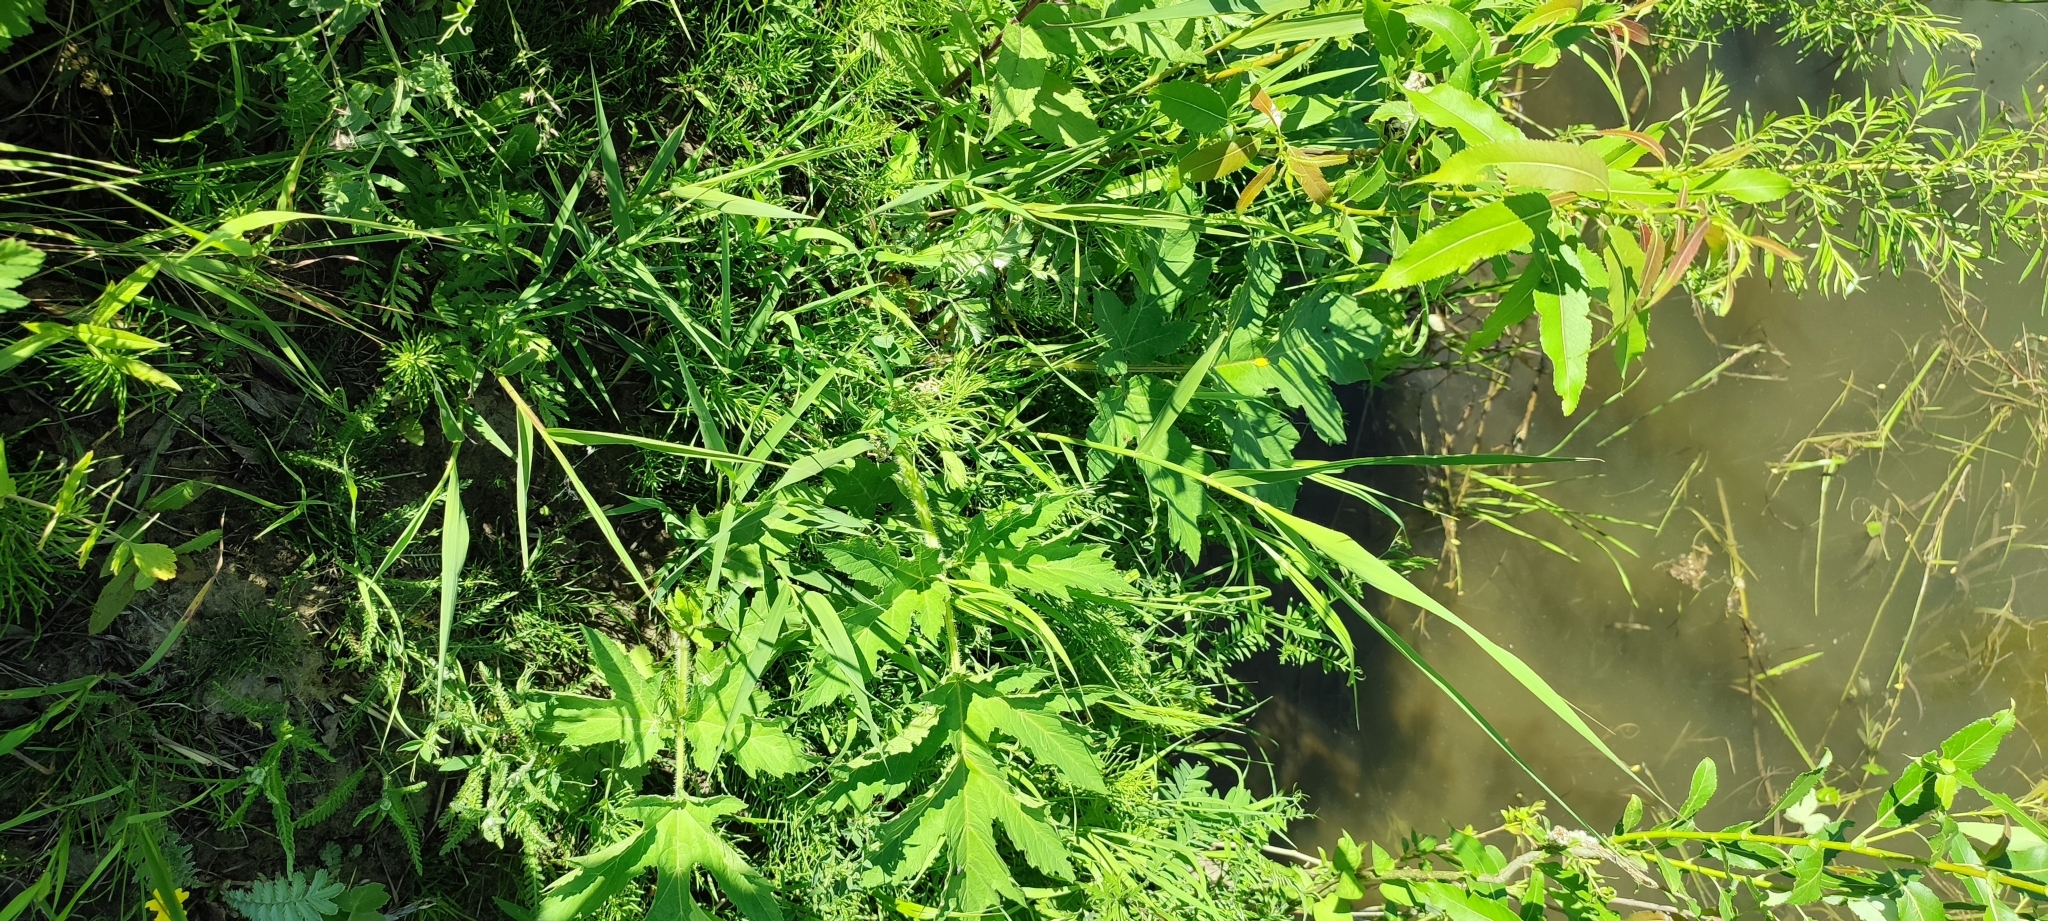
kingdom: Plantae
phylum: Tracheophyta
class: Magnoliopsida
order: Apiales
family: Apiaceae
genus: Heracleum
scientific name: Heracleum sphondylium
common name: Hogweed
